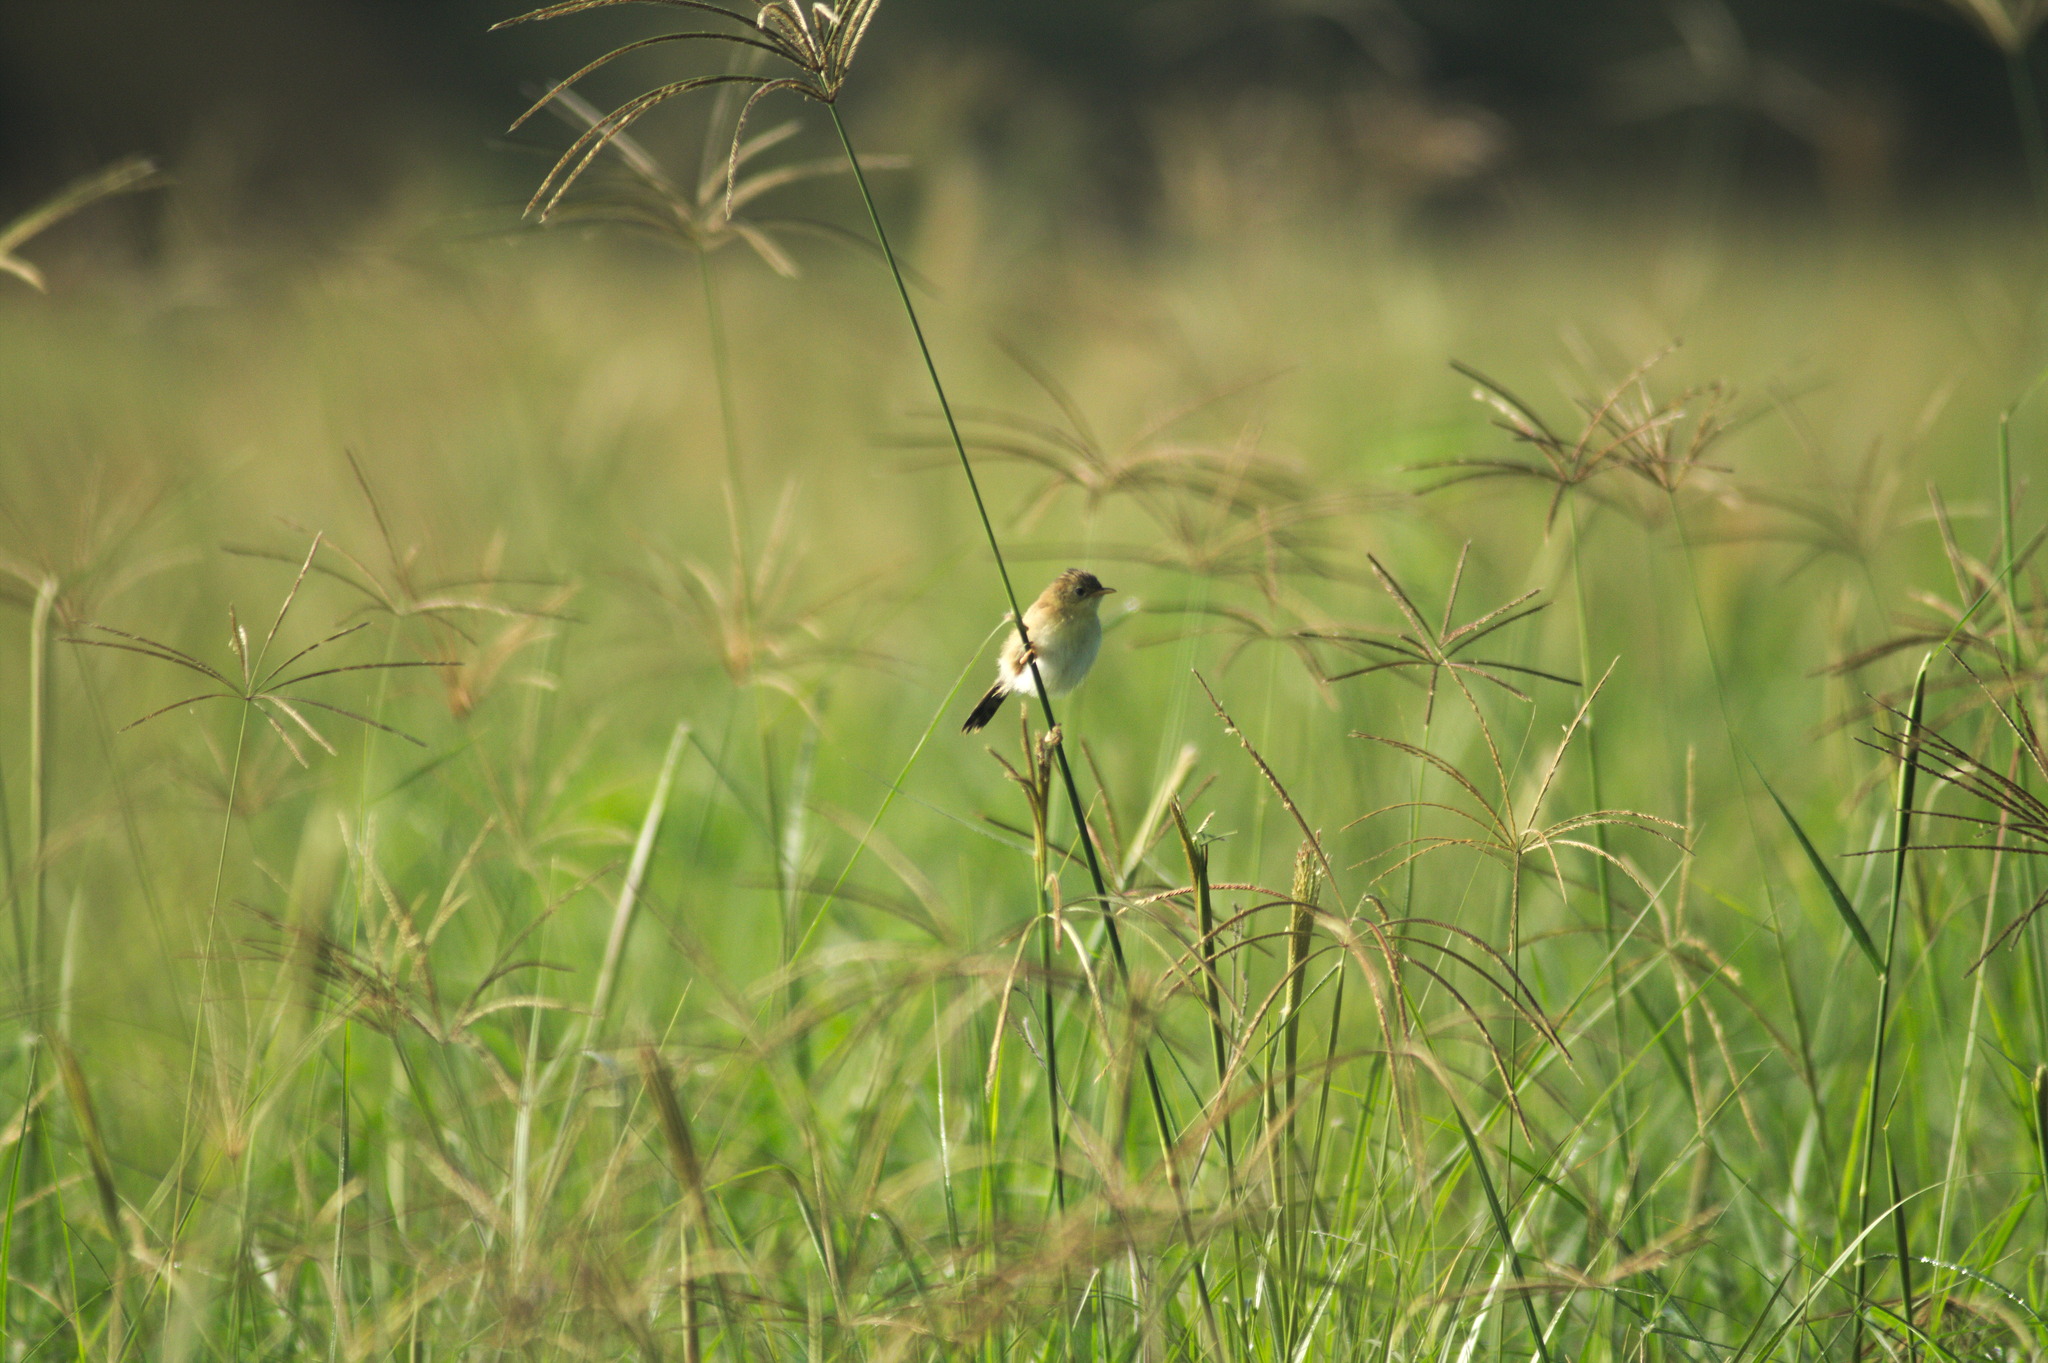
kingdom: Animalia
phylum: Chordata
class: Aves
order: Passeriformes
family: Cisticolidae
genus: Cisticola
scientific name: Cisticola exilis
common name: Golden-headed cisticola
